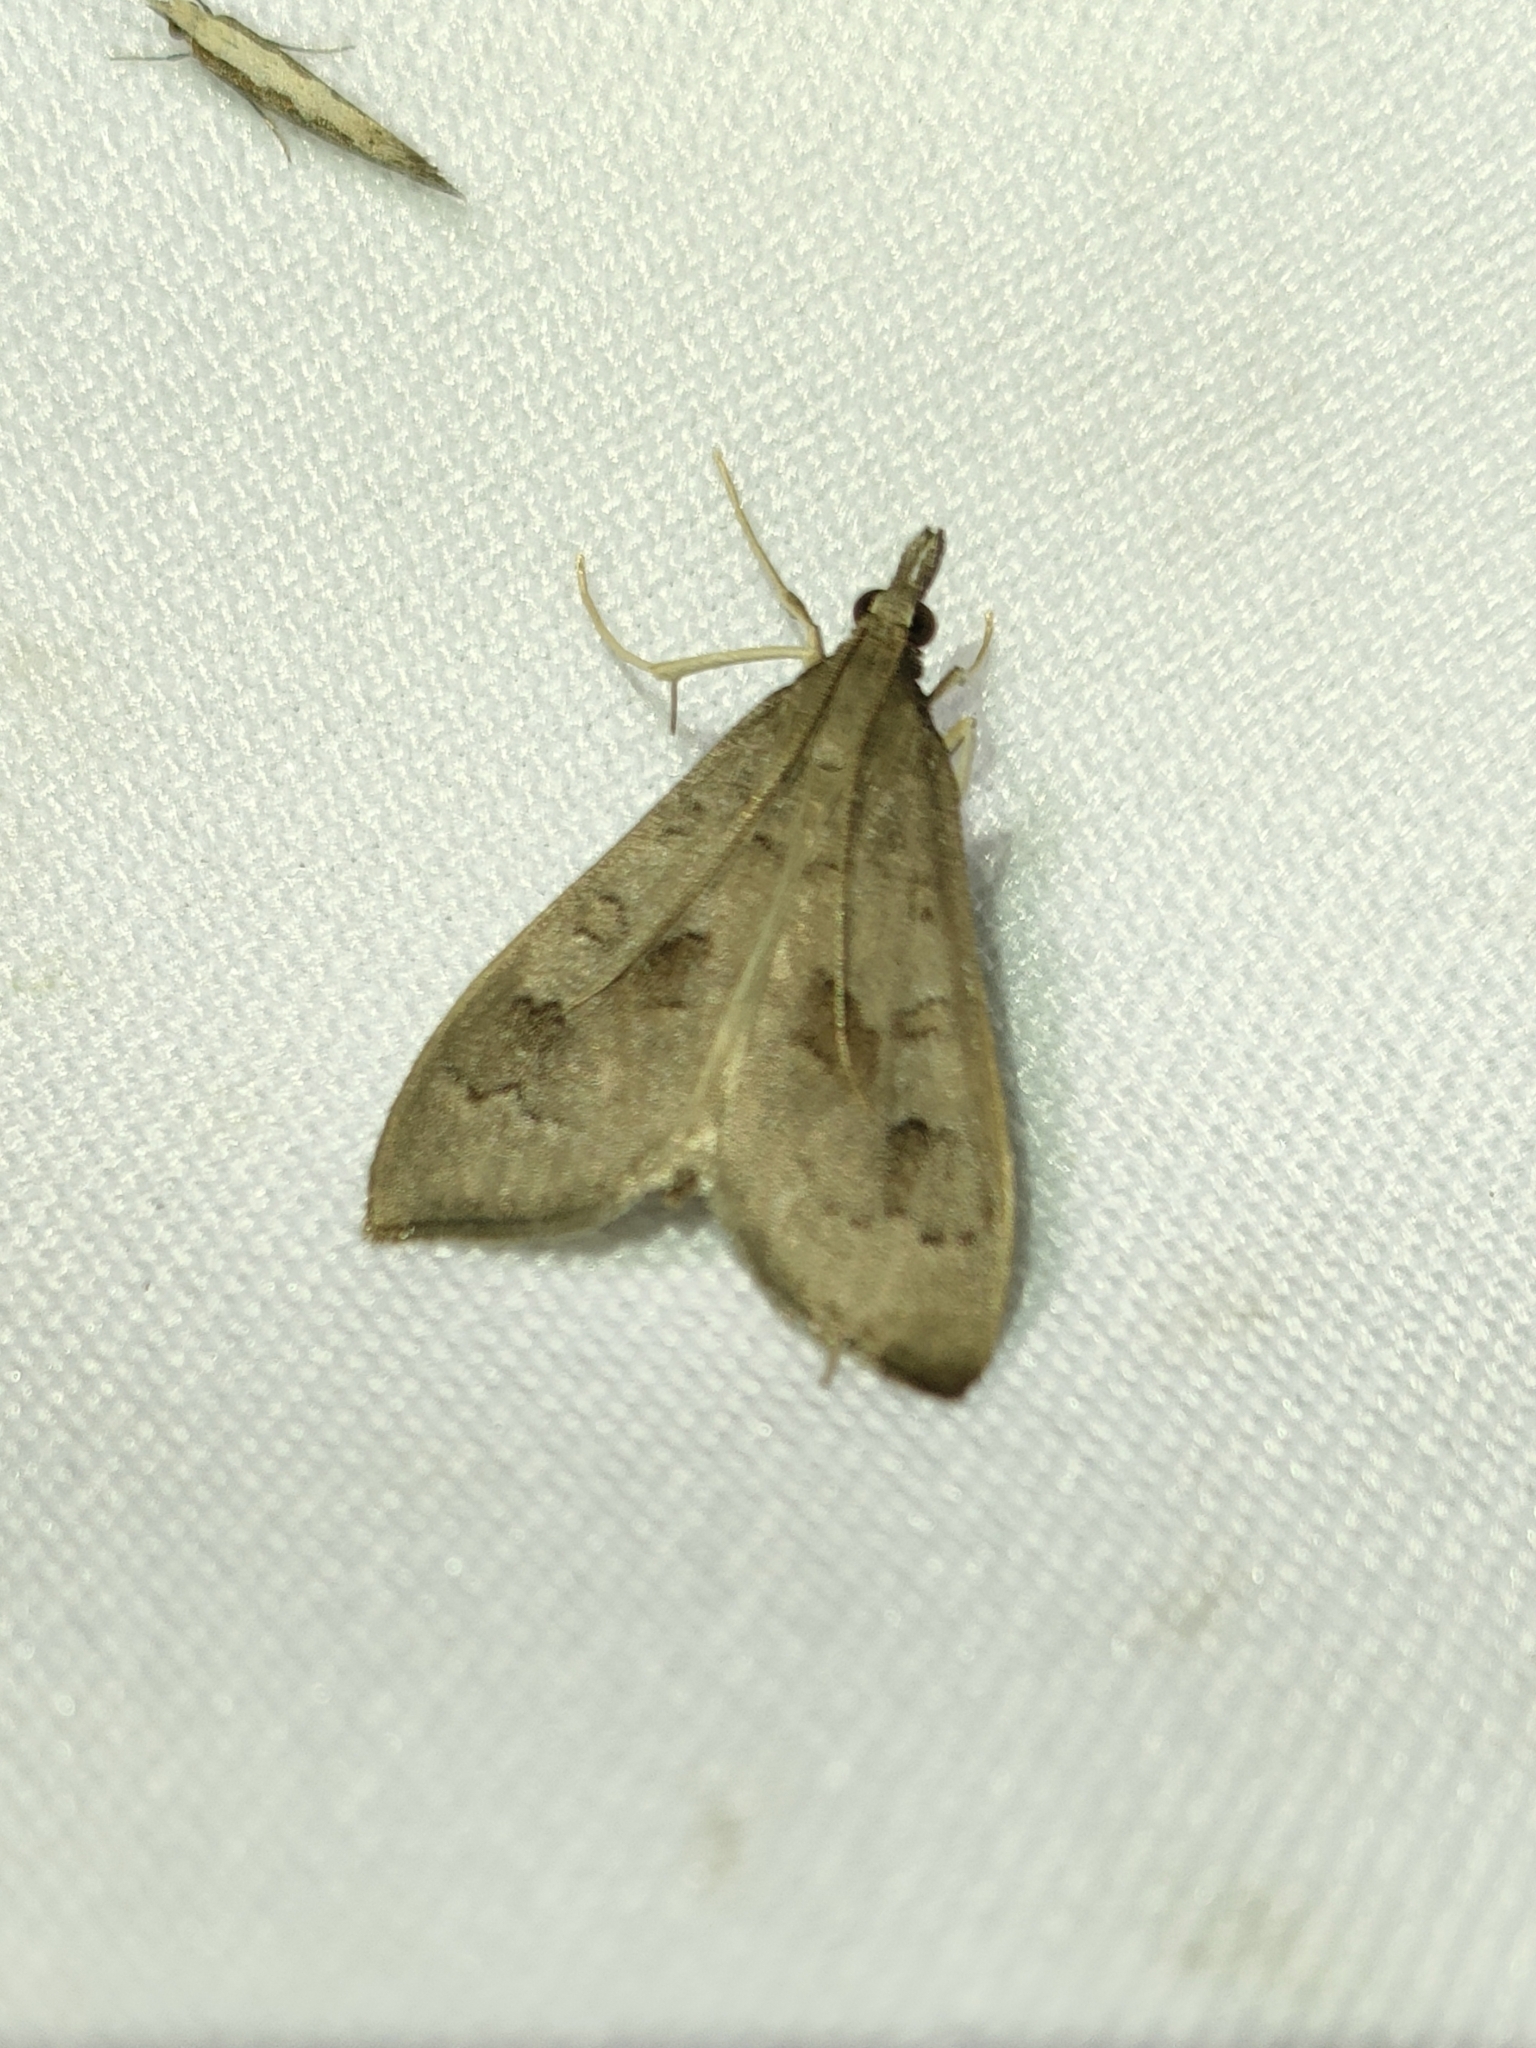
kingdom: Animalia
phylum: Arthropoda
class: Insecta
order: Lepidoptera
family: Crambidae
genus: Mecyna
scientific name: Mecyna asinalis
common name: Coastal pearl
